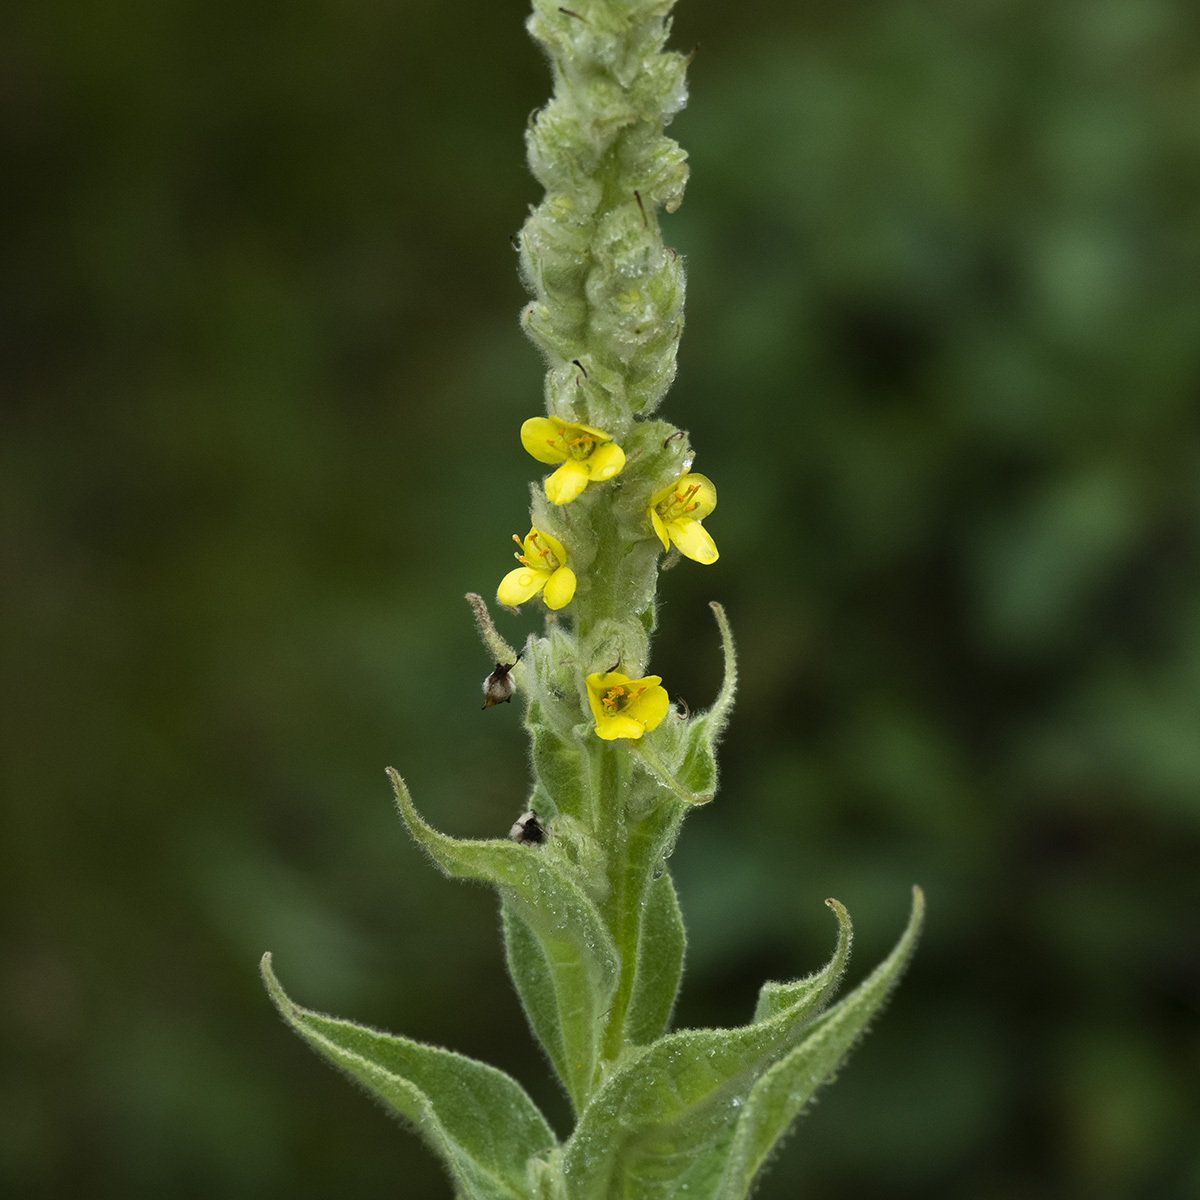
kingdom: Plantae
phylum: Tracheophyta
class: Magnoliopsida
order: Lamiales
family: Scrophulariaceae
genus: Verbascum
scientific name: Verbascum thapsus
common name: Common mullein
